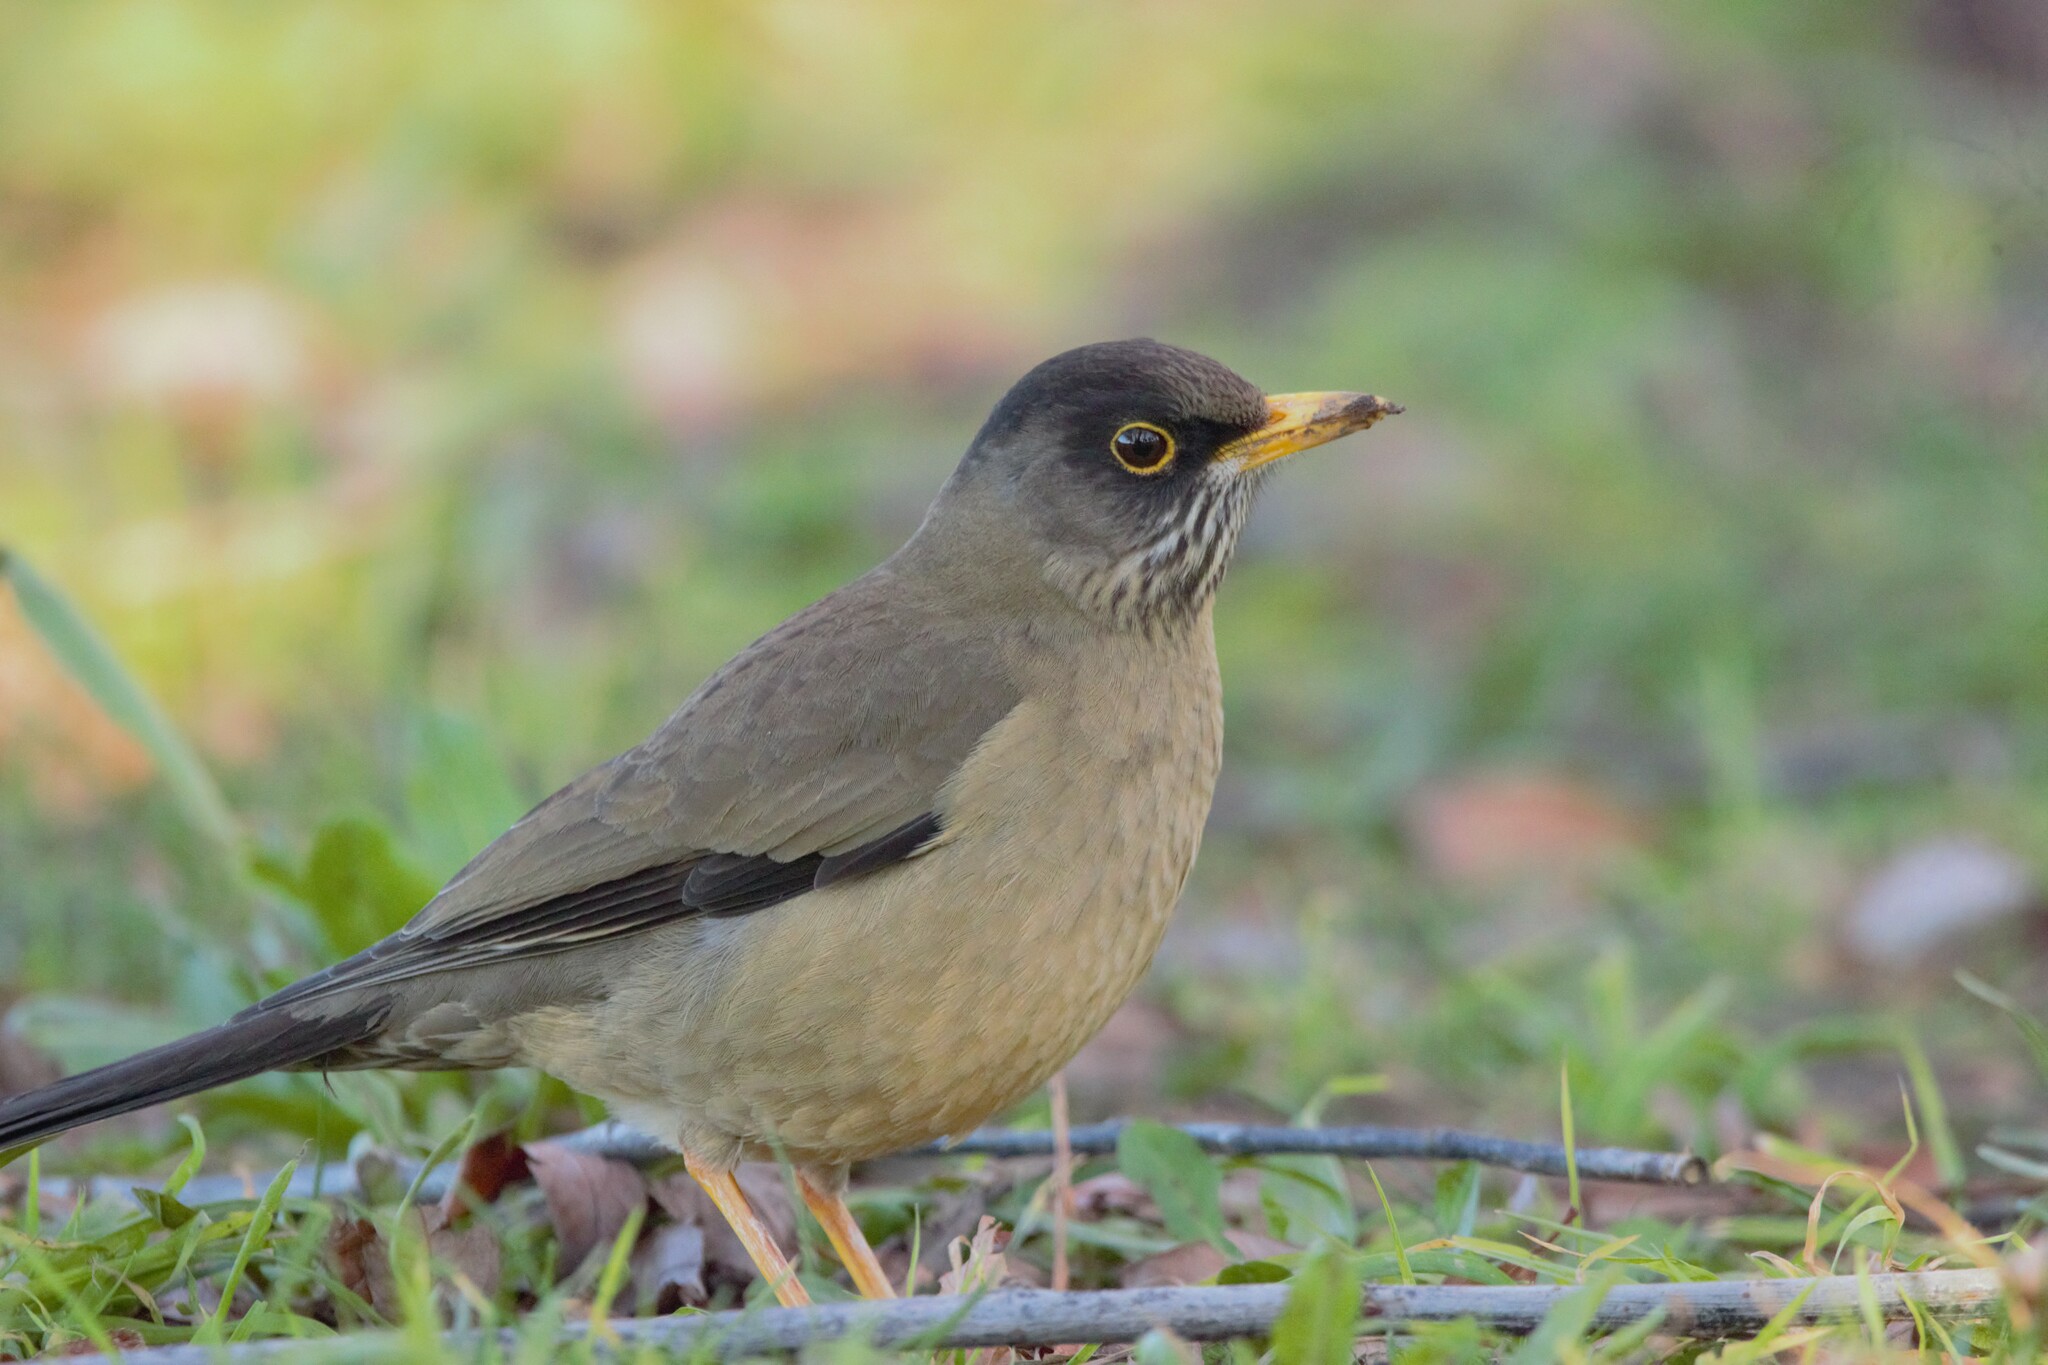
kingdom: Animalia
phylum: Chordata
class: Aves
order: Passeriformes
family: Turdidae
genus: Turdus
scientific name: Turdus falcklandii
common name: Austral thrush
